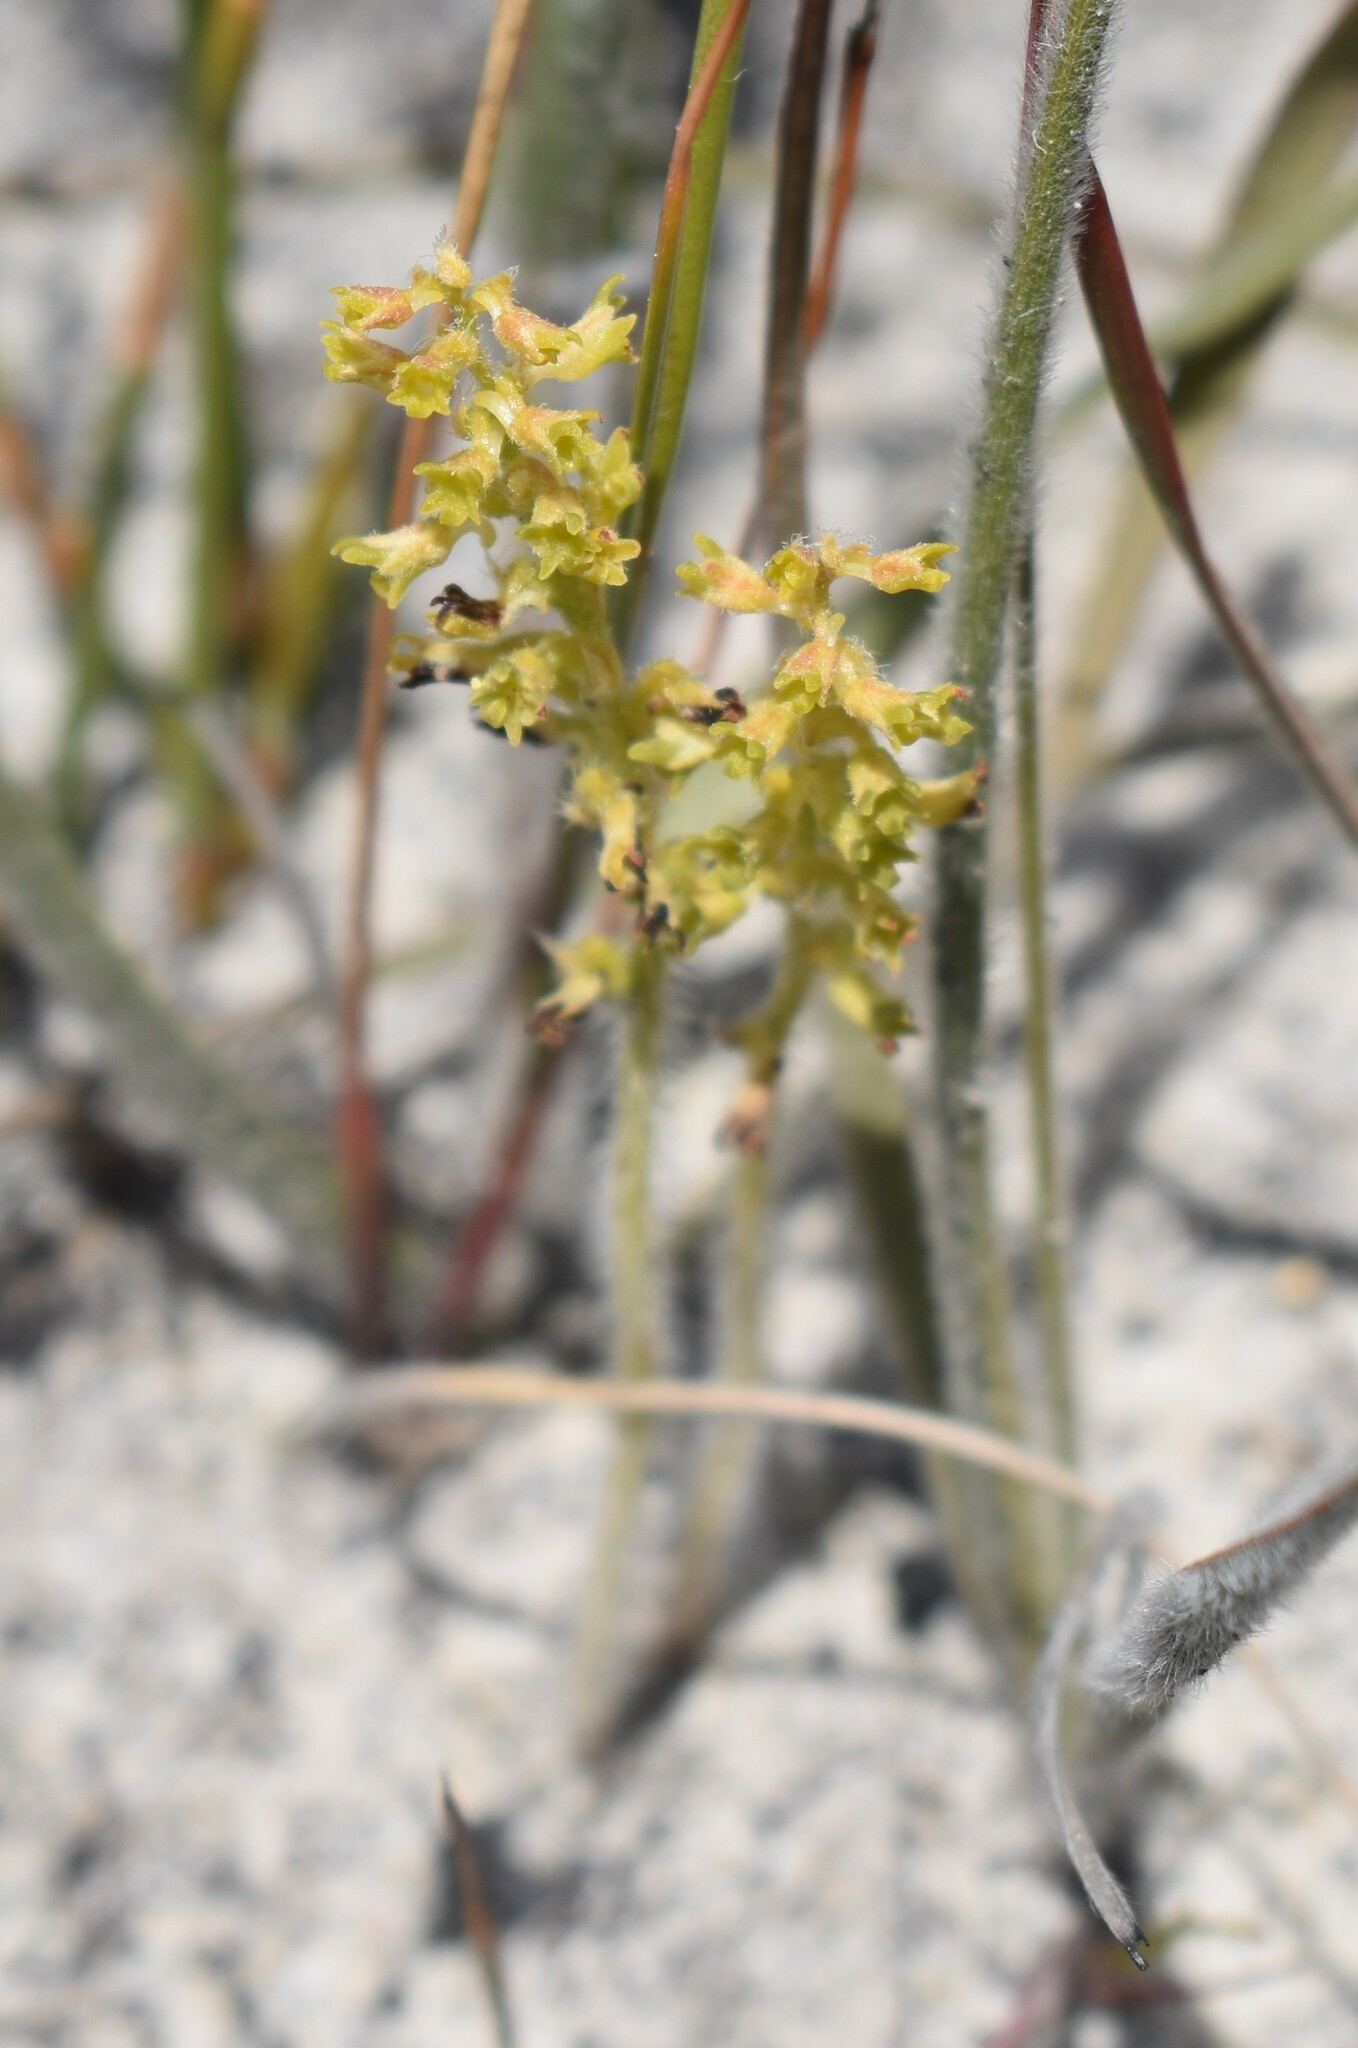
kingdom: Plantae
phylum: Tracheophyta
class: Liliopsida
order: Asparagales
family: Orchidaceae
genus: Holothrix
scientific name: Holothrix brevipetala
